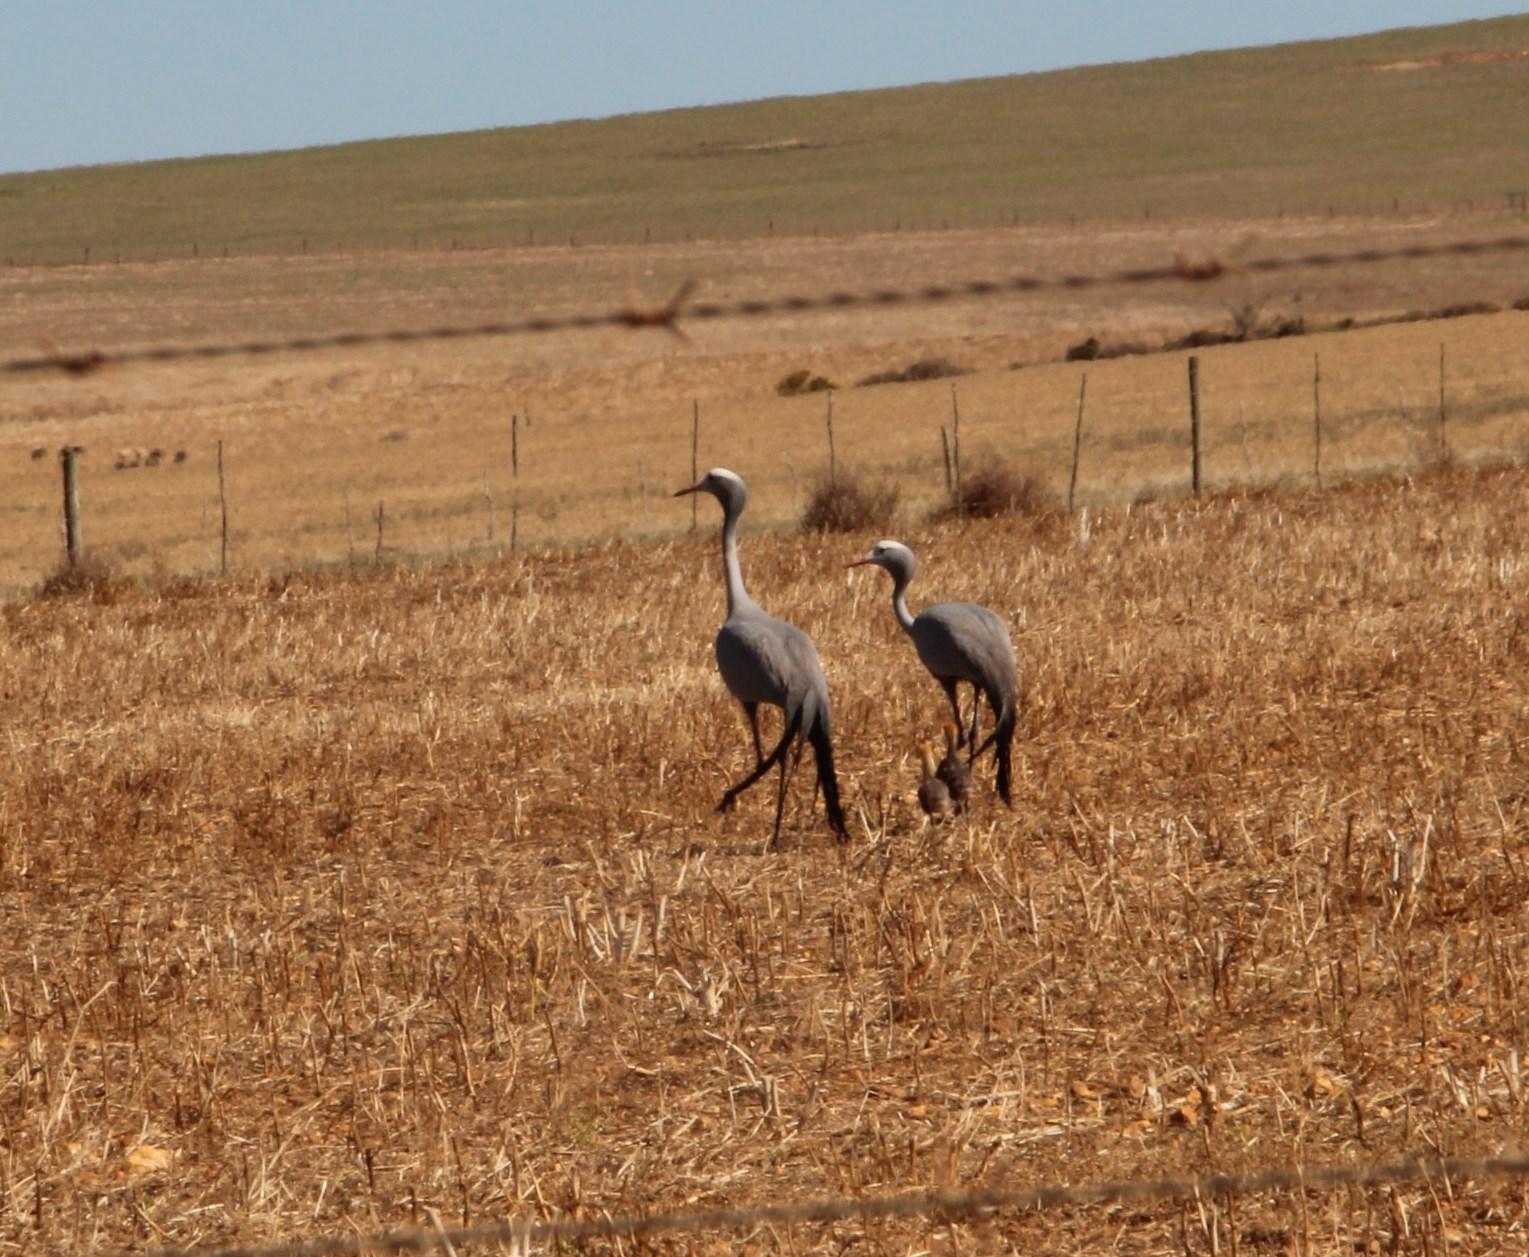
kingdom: Animalia
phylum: Chordata
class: Aves
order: Gruiformes
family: Gruidae
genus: Anthropoides
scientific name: Anthropoides paradiseus
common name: Blue crane
